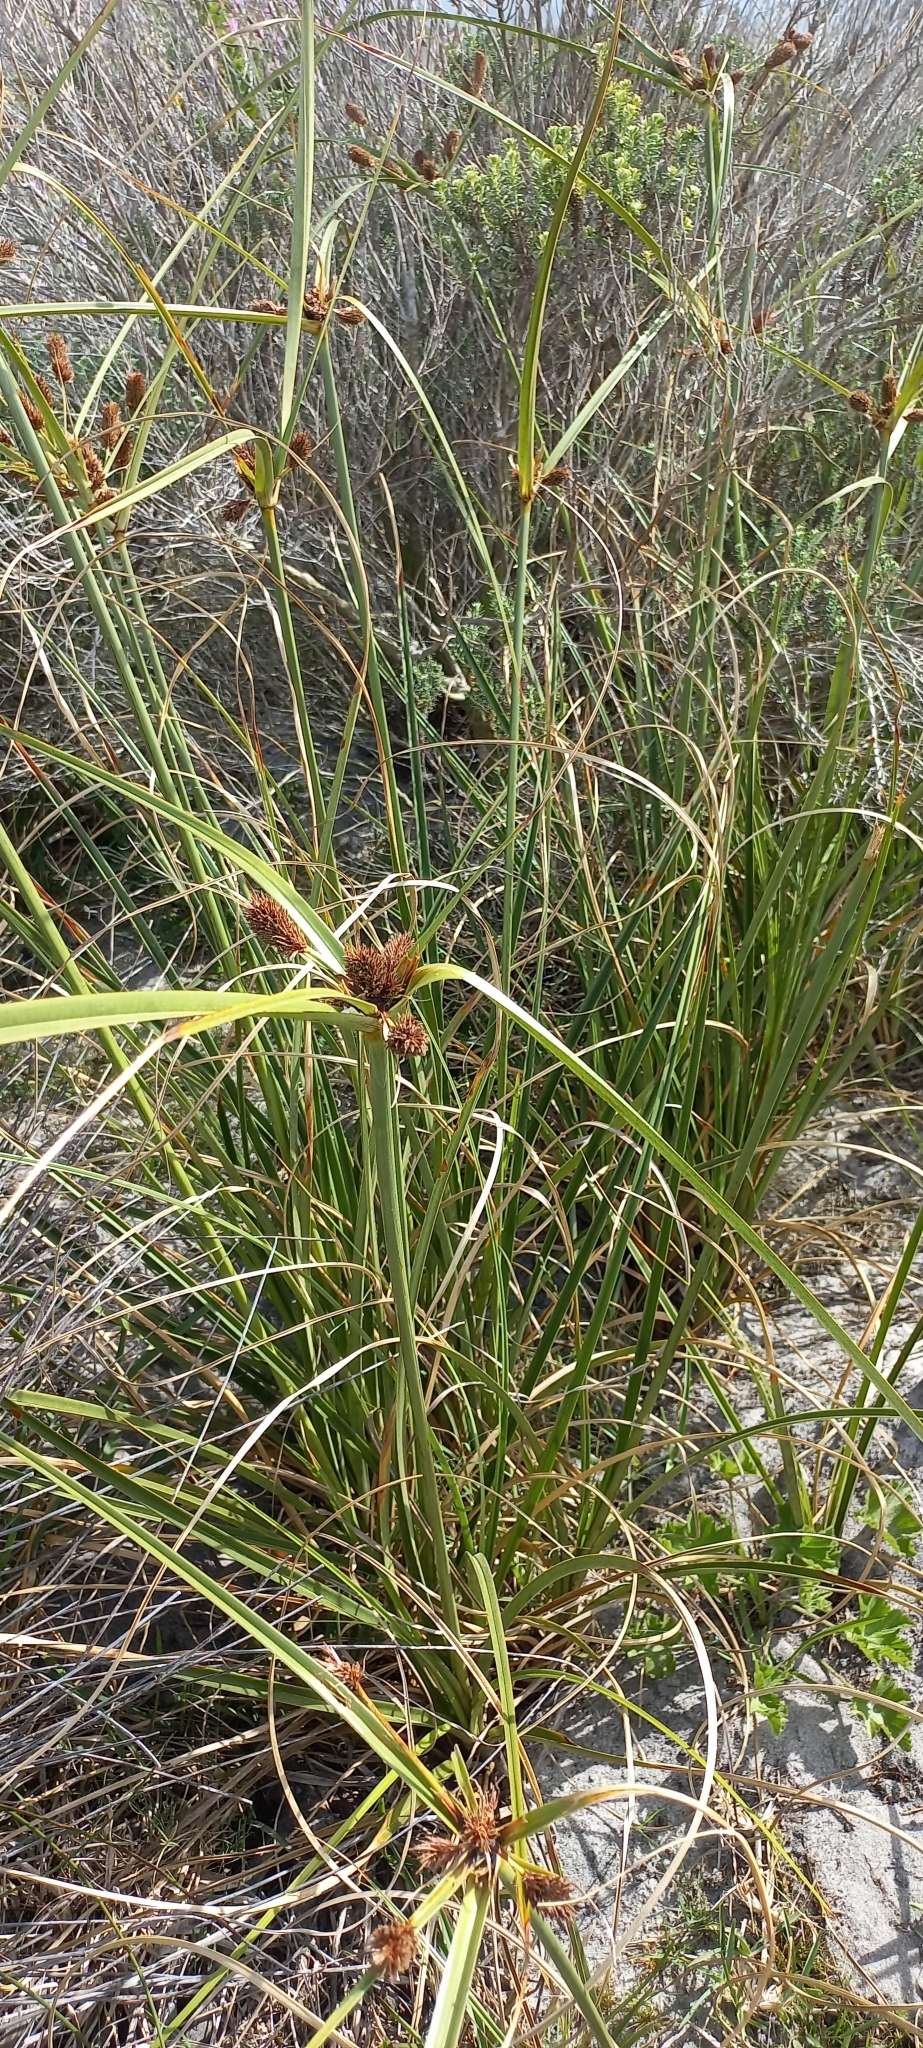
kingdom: Plantae
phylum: Tracheophyta
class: Liliopsida
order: Poales
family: Cyperaceae
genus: Cyperus
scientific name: Cyperus thunbergii
